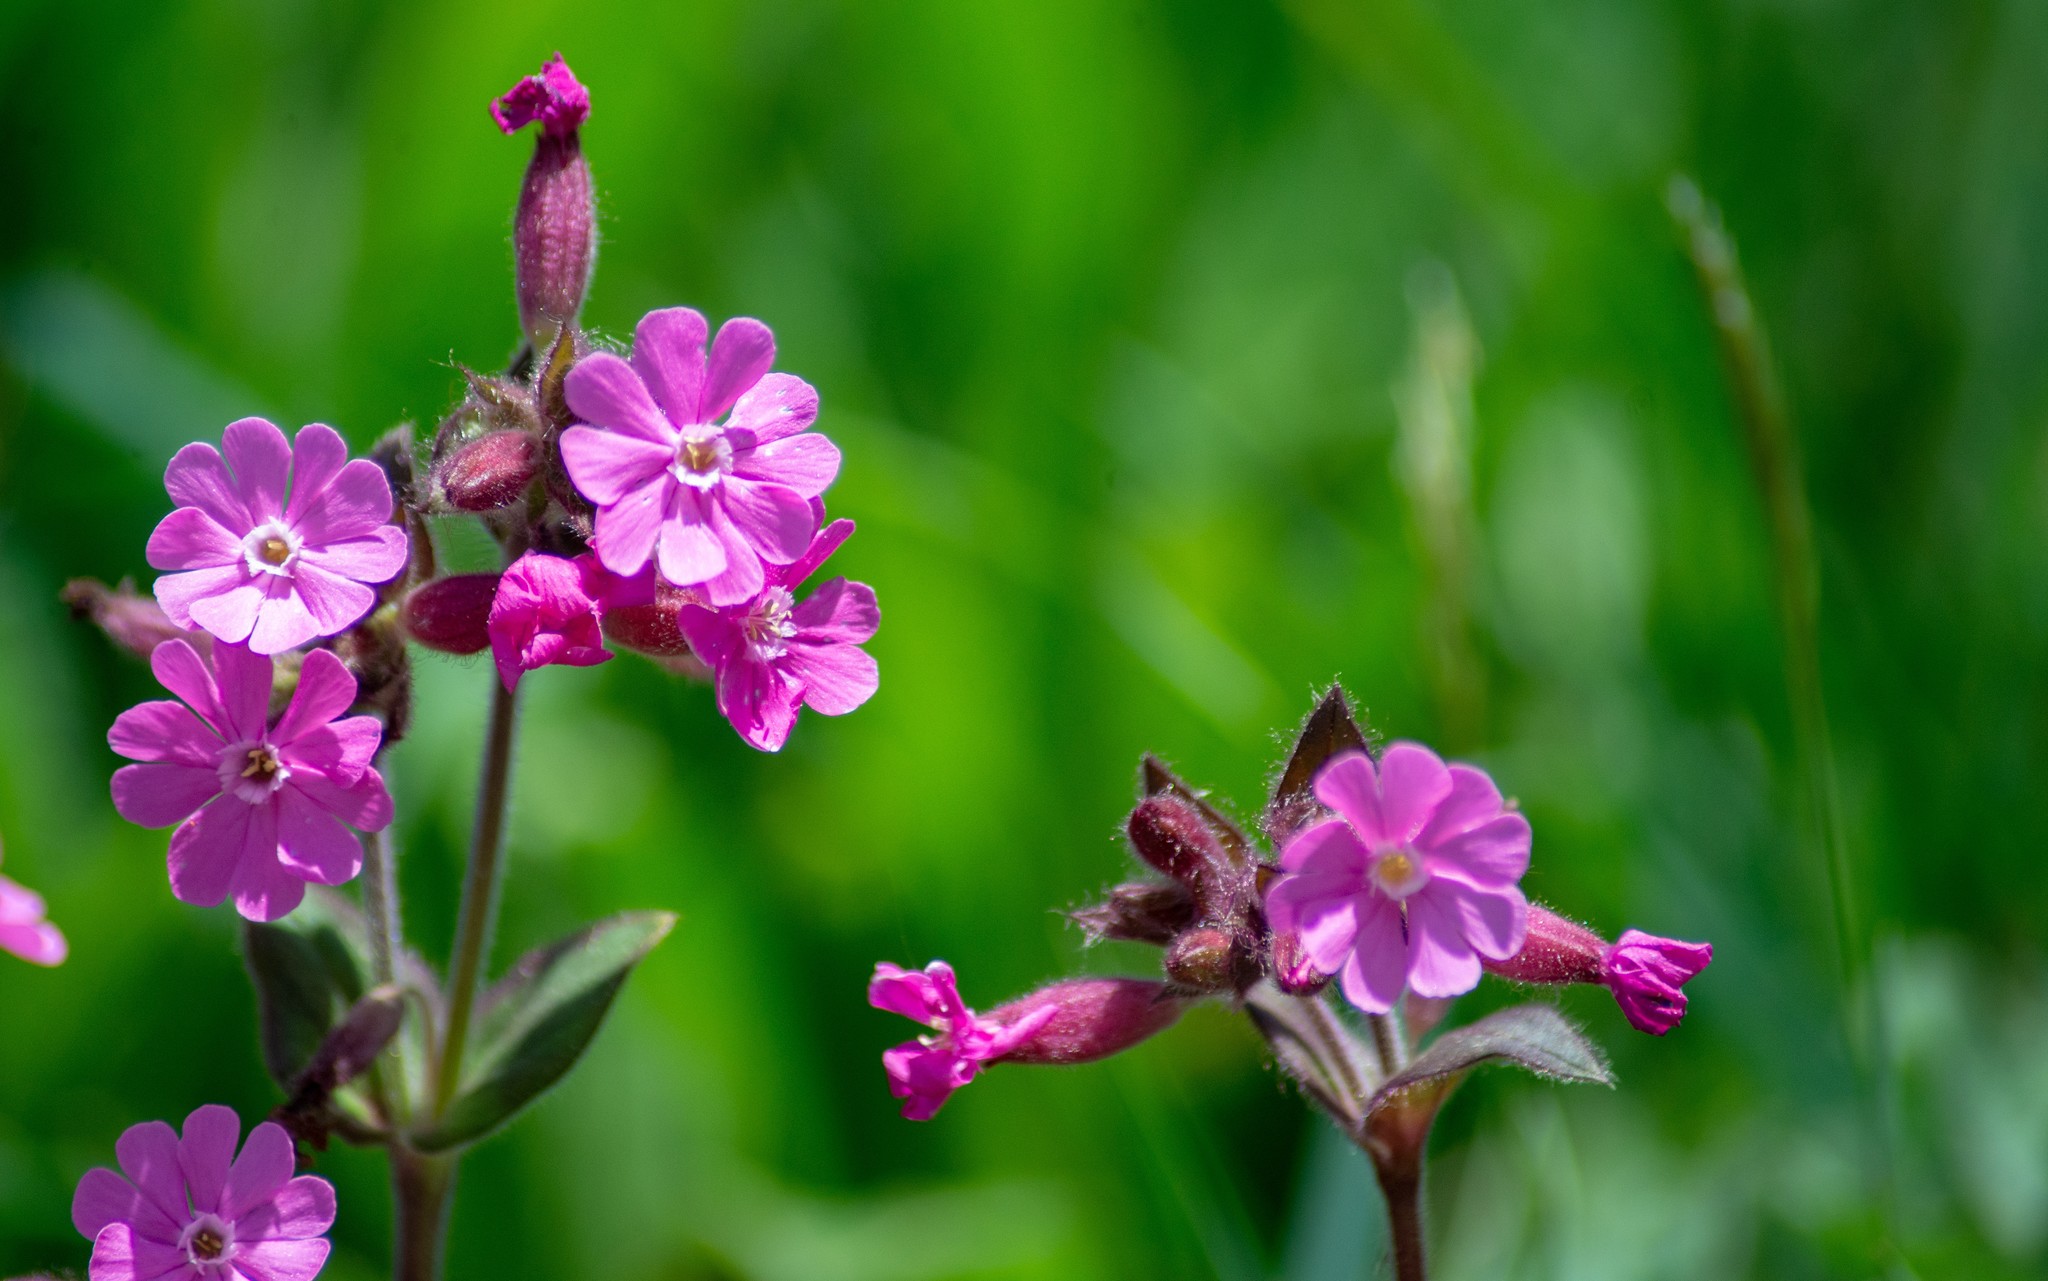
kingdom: Plantae
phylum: Tracheophyta
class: Magnoliopsida
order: Caryophyllales
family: Caryophyllaceae
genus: Silene
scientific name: Silene dioica
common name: Red campion
